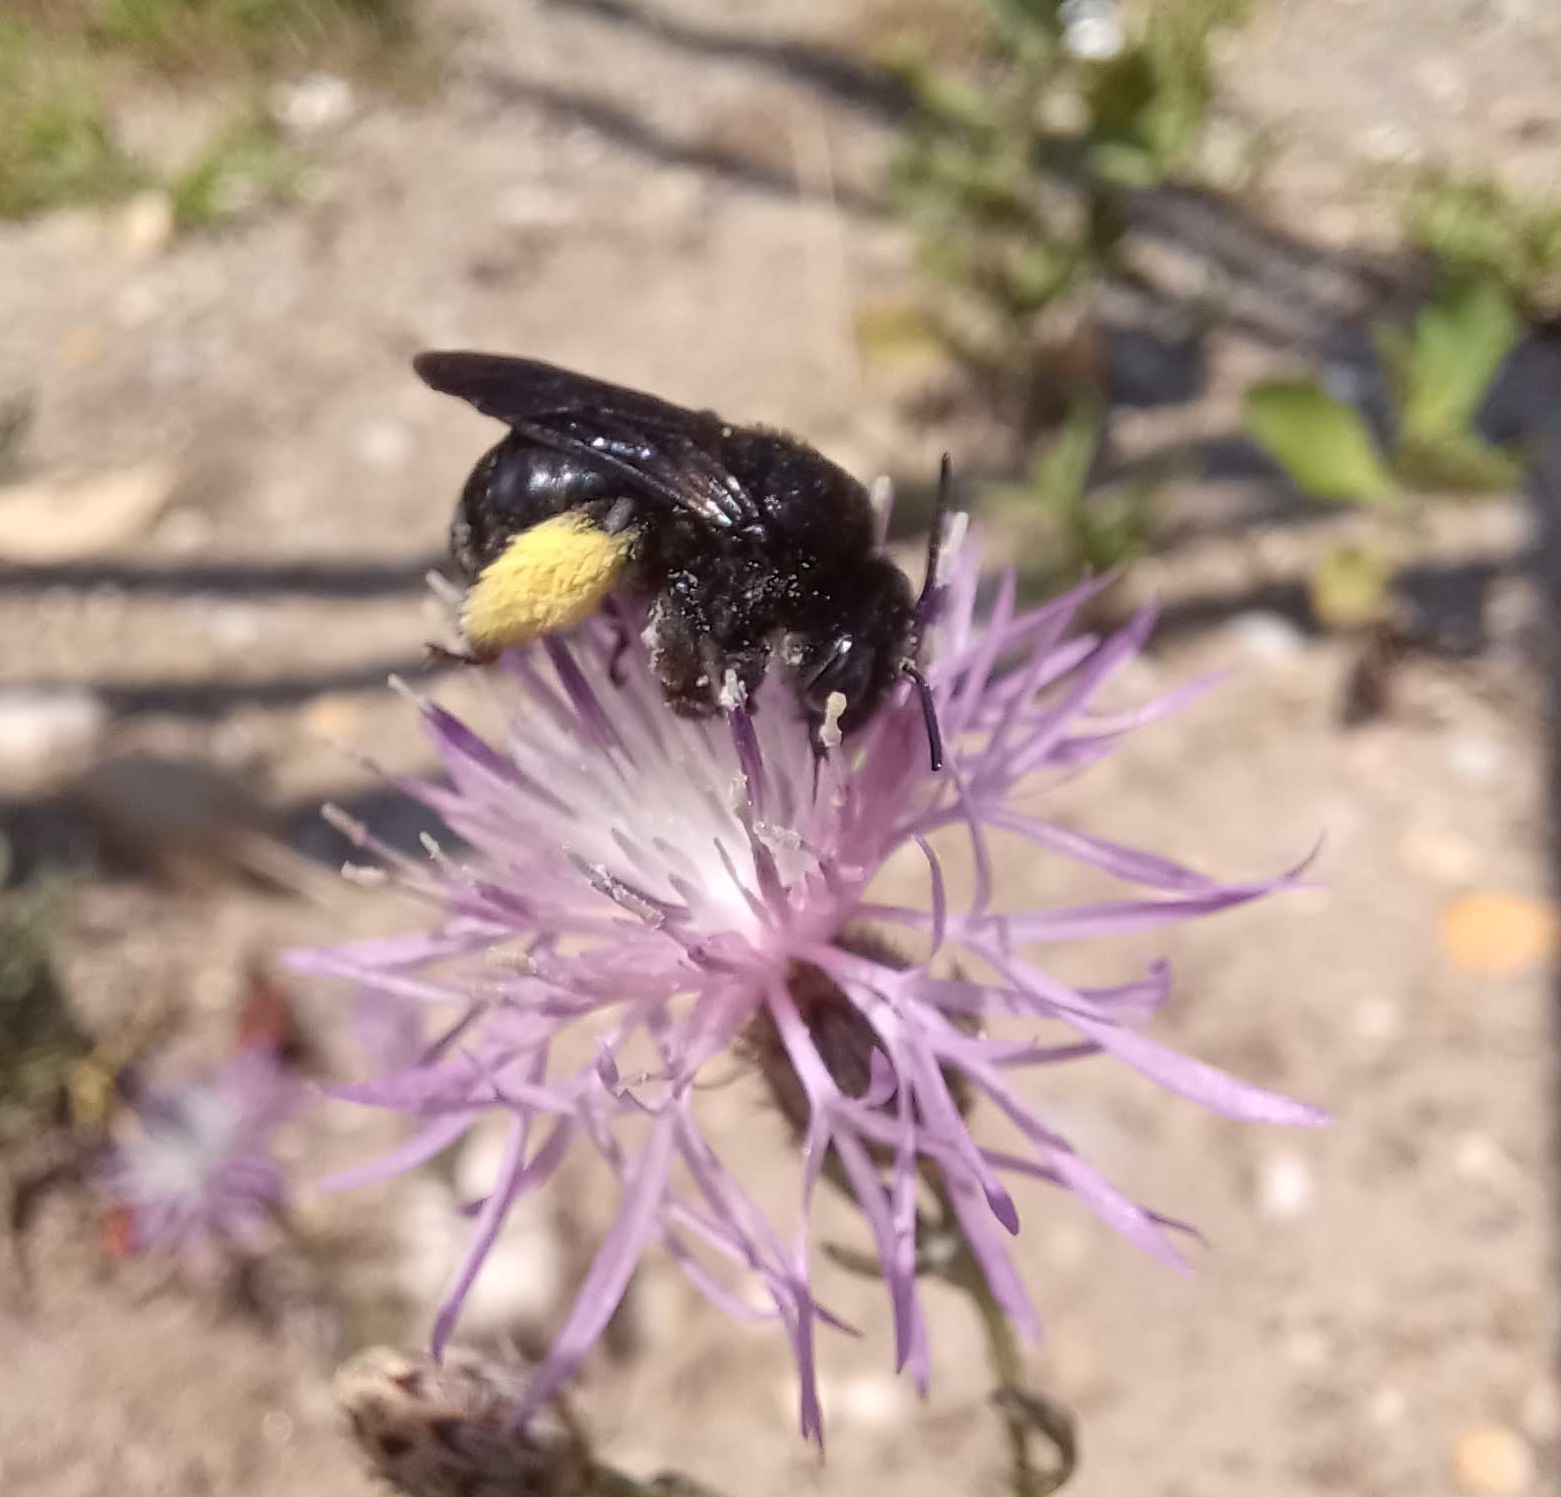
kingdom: Animalia
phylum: Arthropoda
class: Insecta
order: Hymenoptera
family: Apidae
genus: Melissodes
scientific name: Melissodes bimaculatus
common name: Two-spotted long-horned bee
